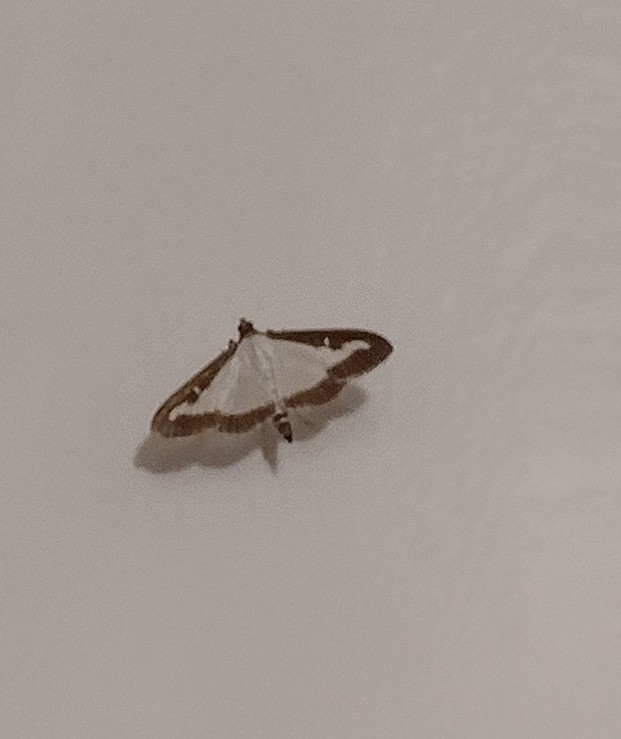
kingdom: Animalia
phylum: Arthropoda
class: Insecta
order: Lepidoptera
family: Crambidae
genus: Cydalima
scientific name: Cydalima perspectalis
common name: Box tree moth
